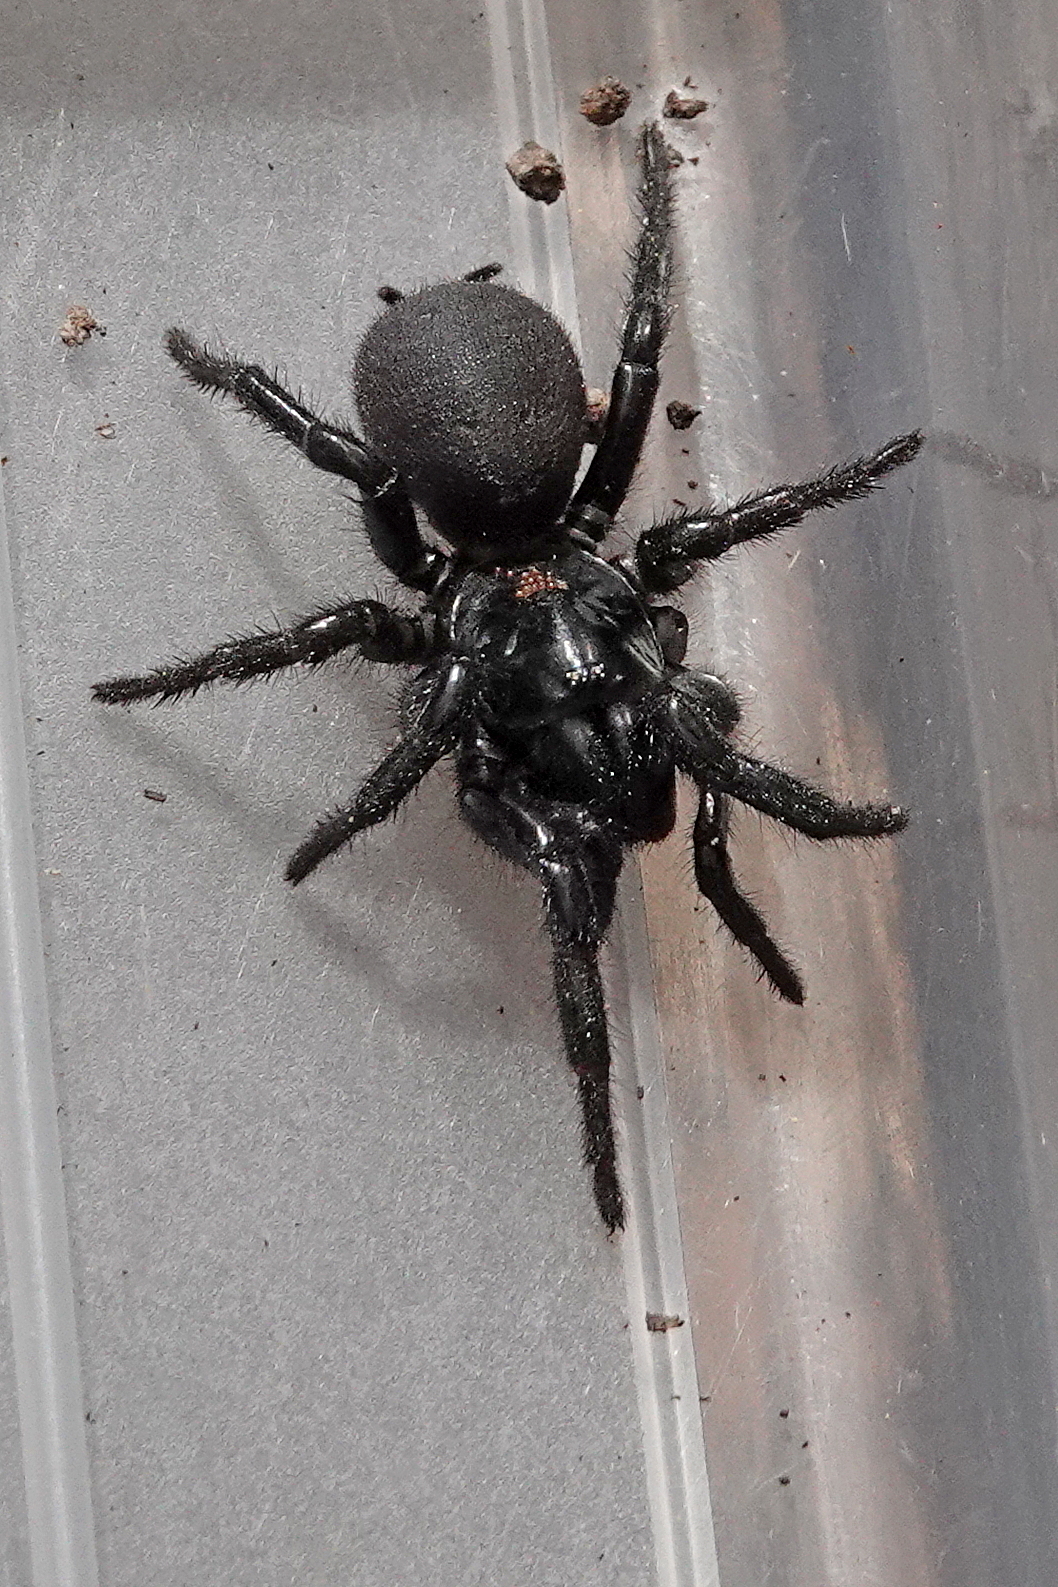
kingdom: Animalia
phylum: Arthropoda
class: Arachnida
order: Araneae
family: Atracidae
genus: Atrax
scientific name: Atrax sutherlandi
